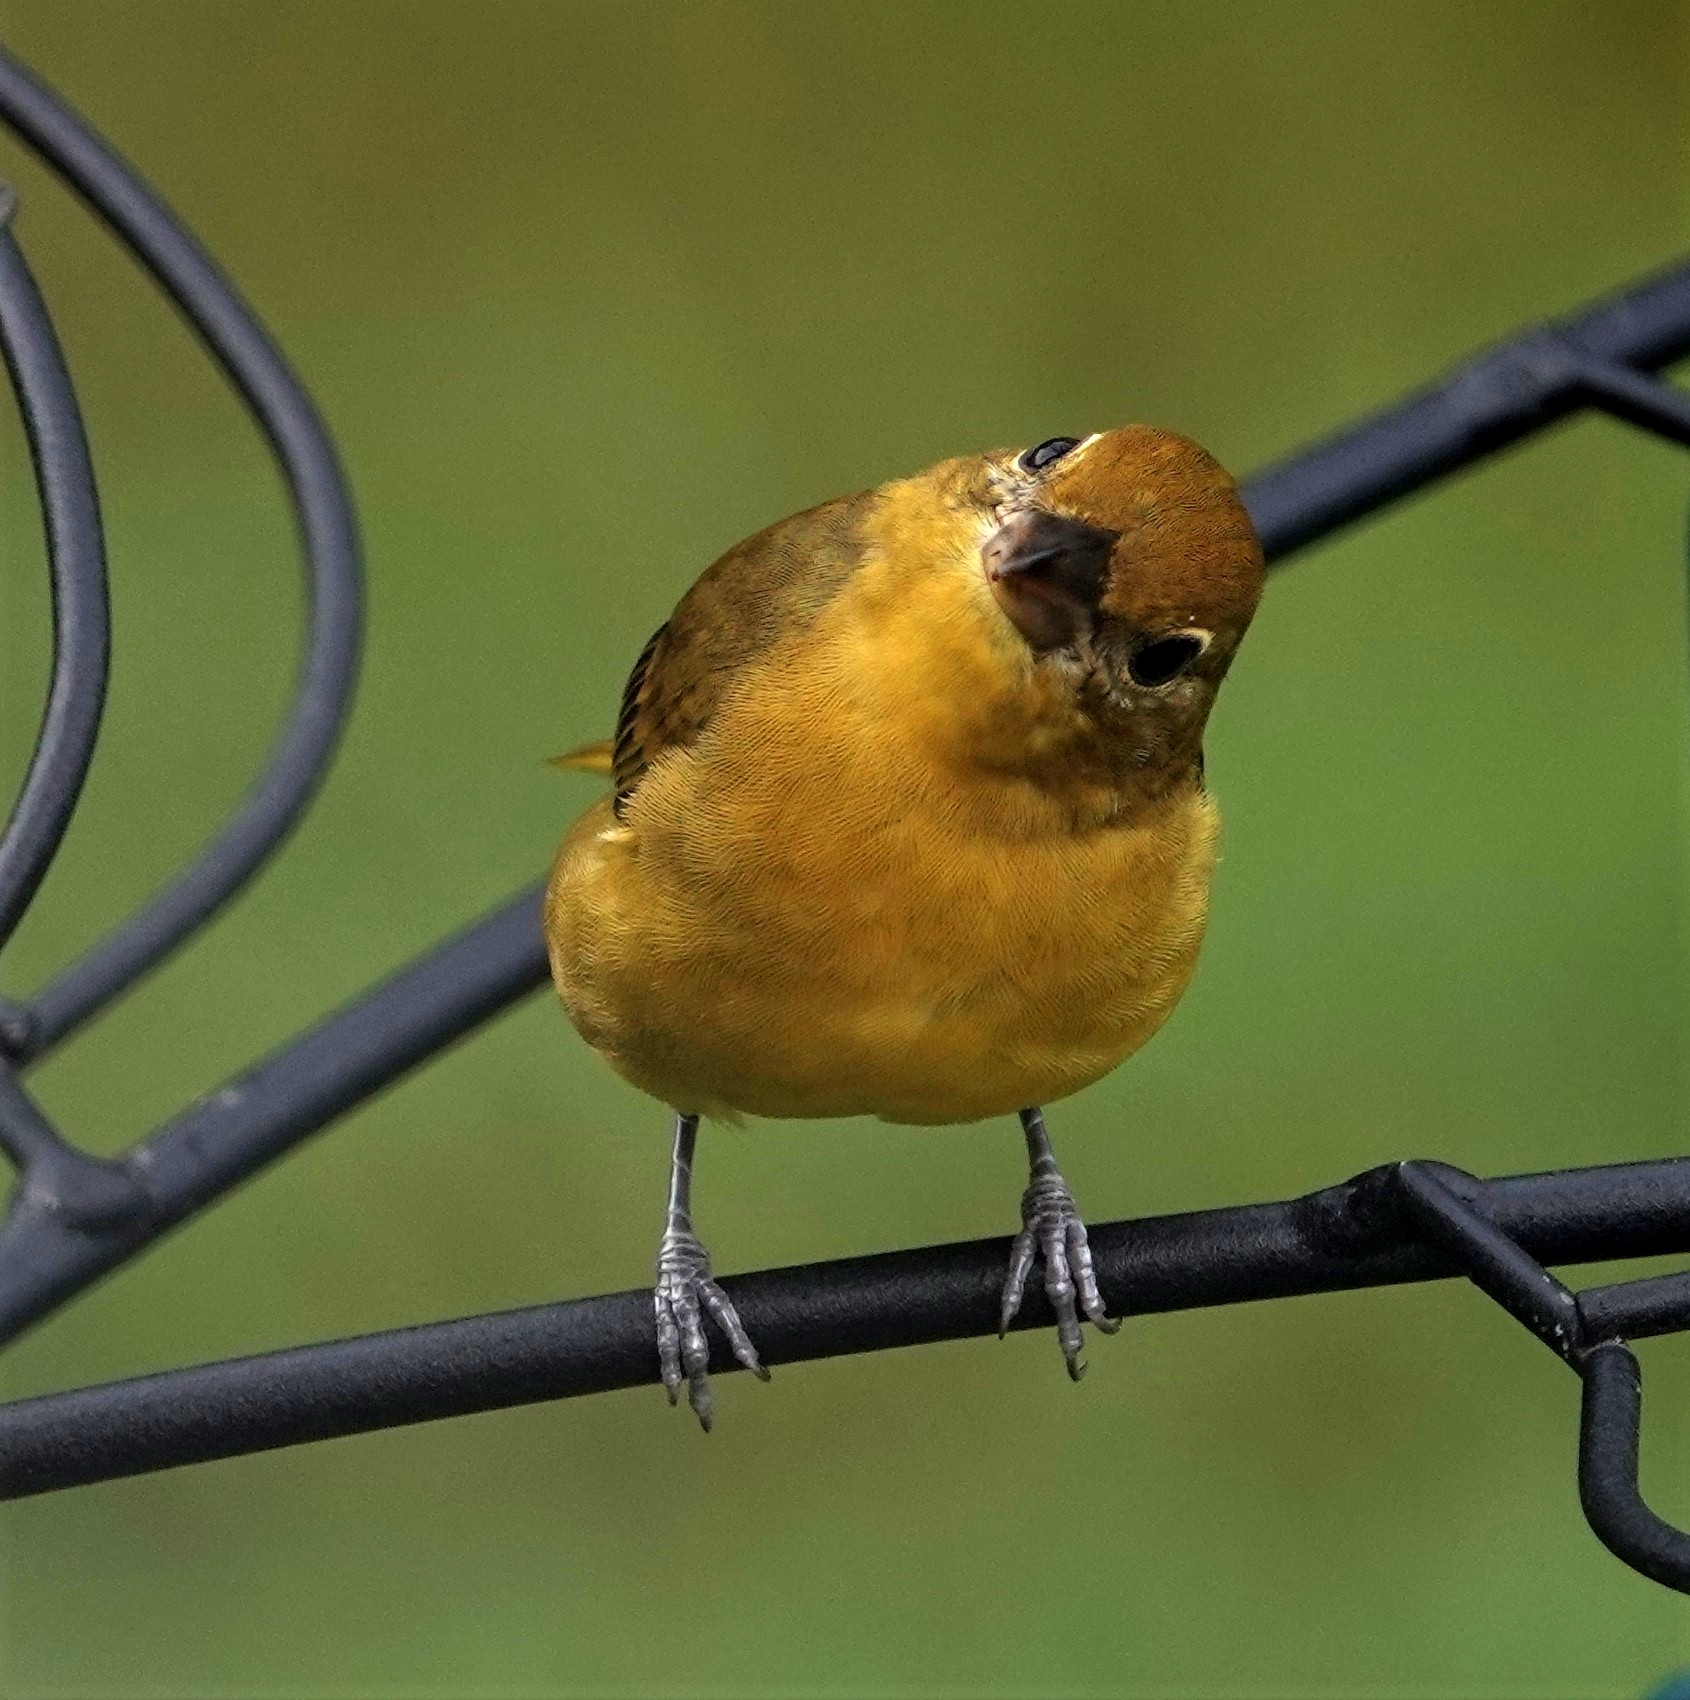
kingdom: Animalia
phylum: Chordata
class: Aves
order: Passeriformes
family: Cardinalidae
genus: Piranga
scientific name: Piranga rubra
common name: Summer tanager
